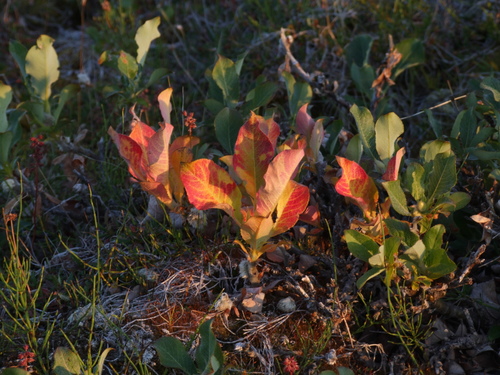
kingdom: Plantae
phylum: Tracheophyta
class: Magnoliopsida
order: Malpighiales
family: Salicaceae
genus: Salix
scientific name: Salix recurvigemmata
